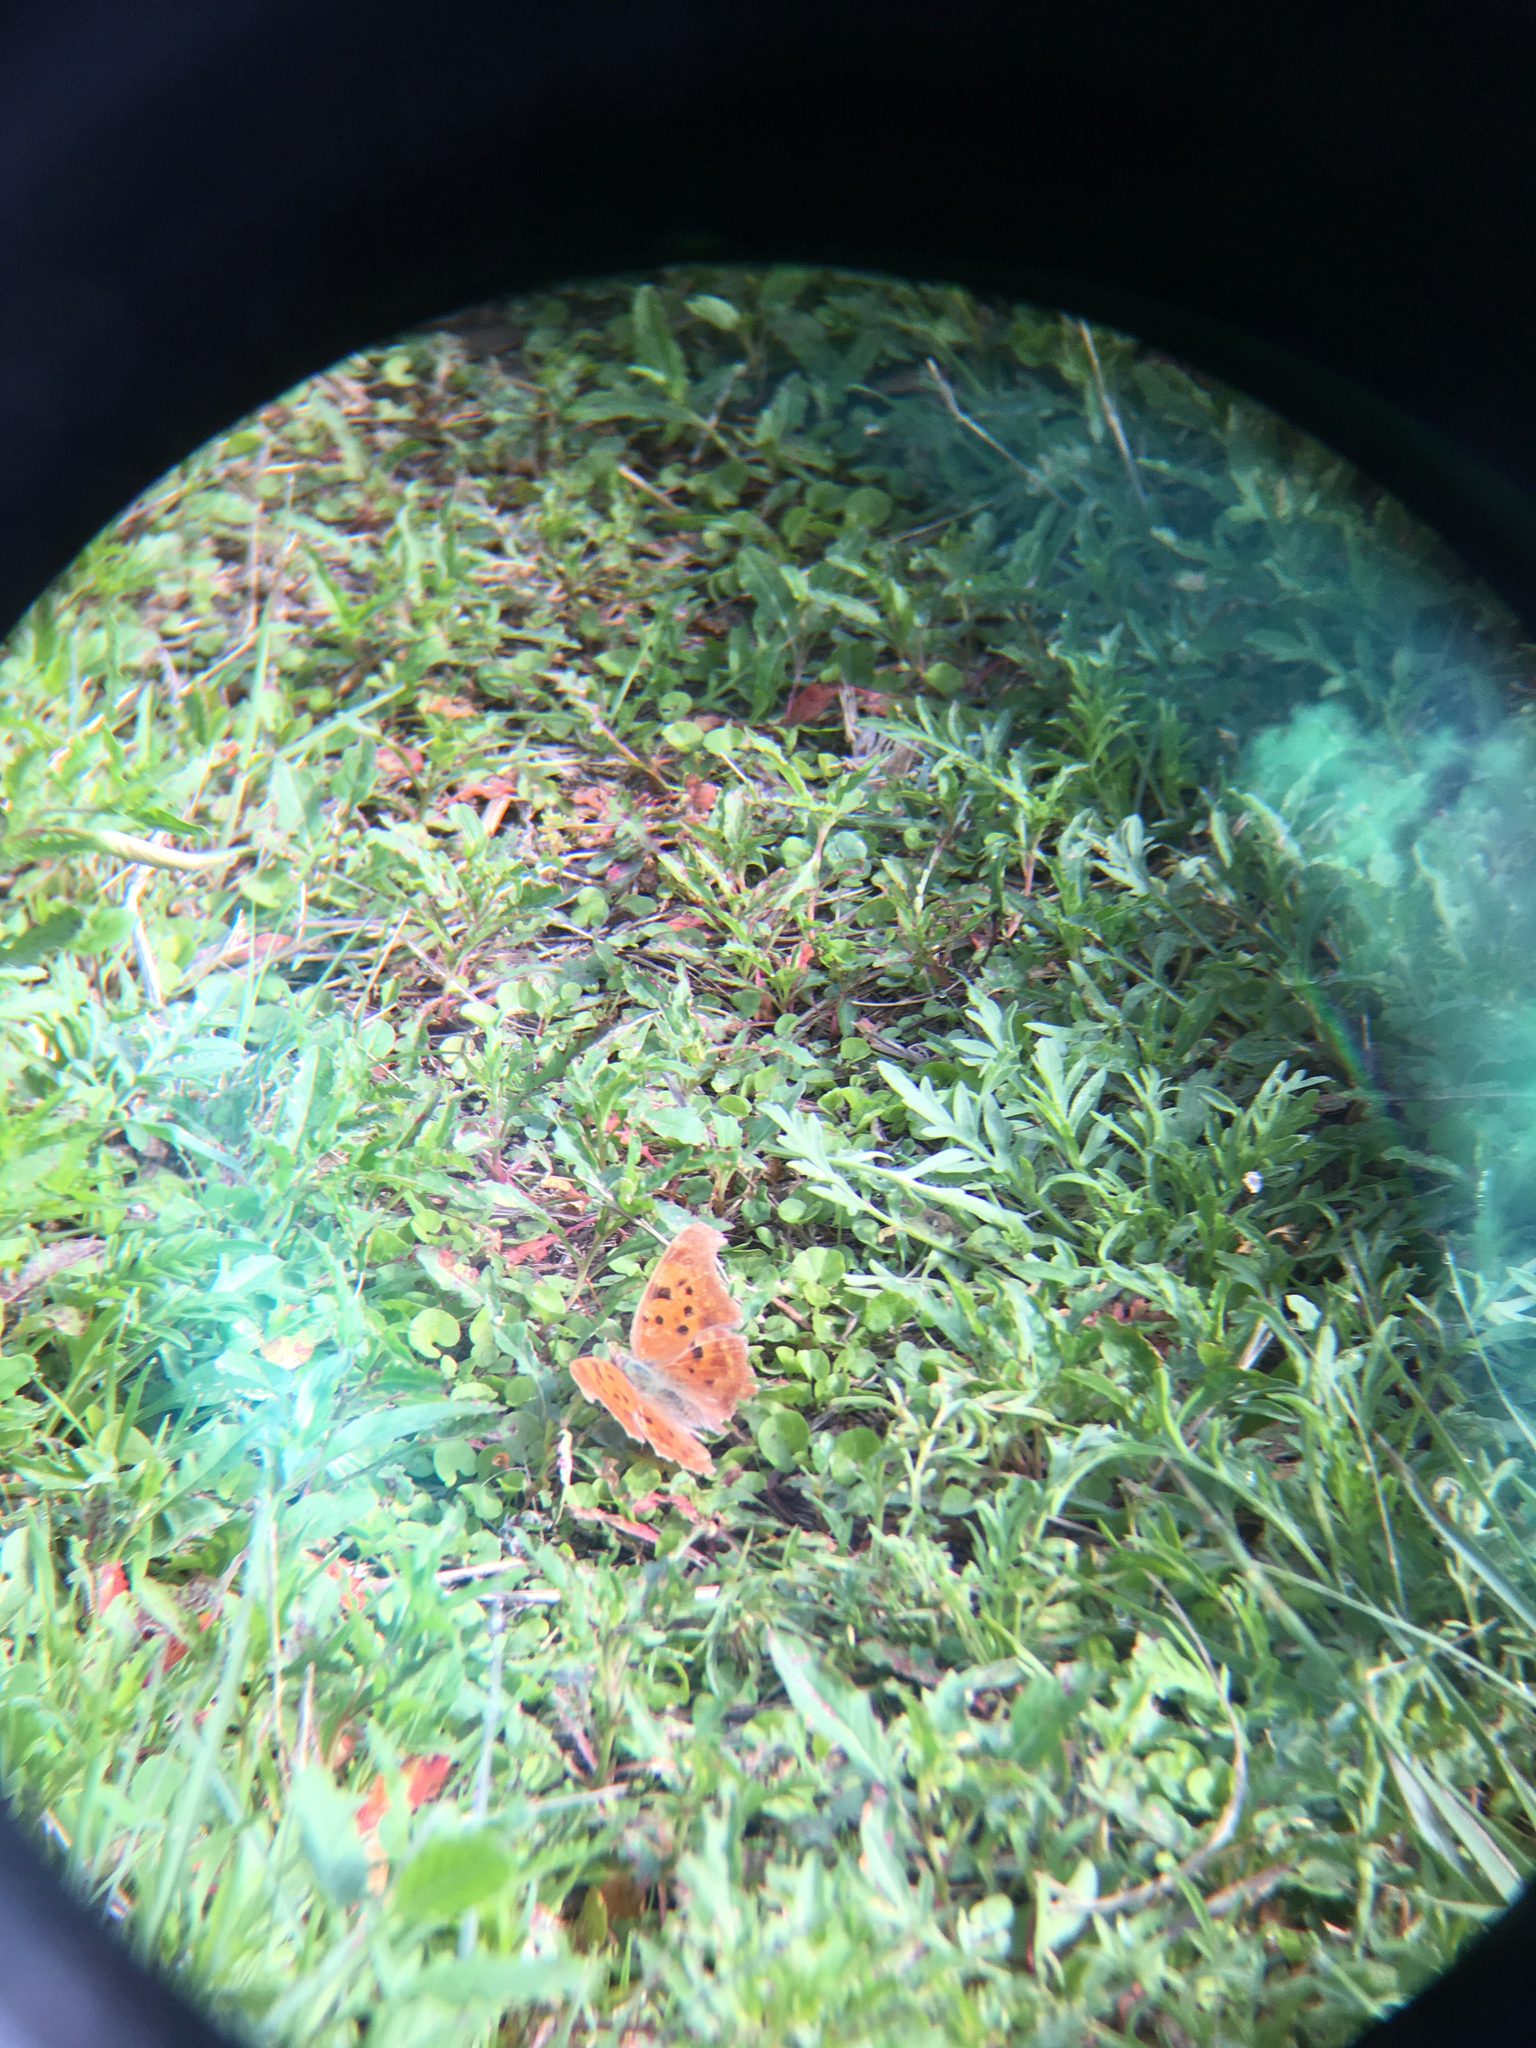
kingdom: Animalia
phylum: Arthropoda
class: Insecta
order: Lepidoptera
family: Nymphalidae
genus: Polygonia
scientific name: Polygonia interrogationis
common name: Question mark
